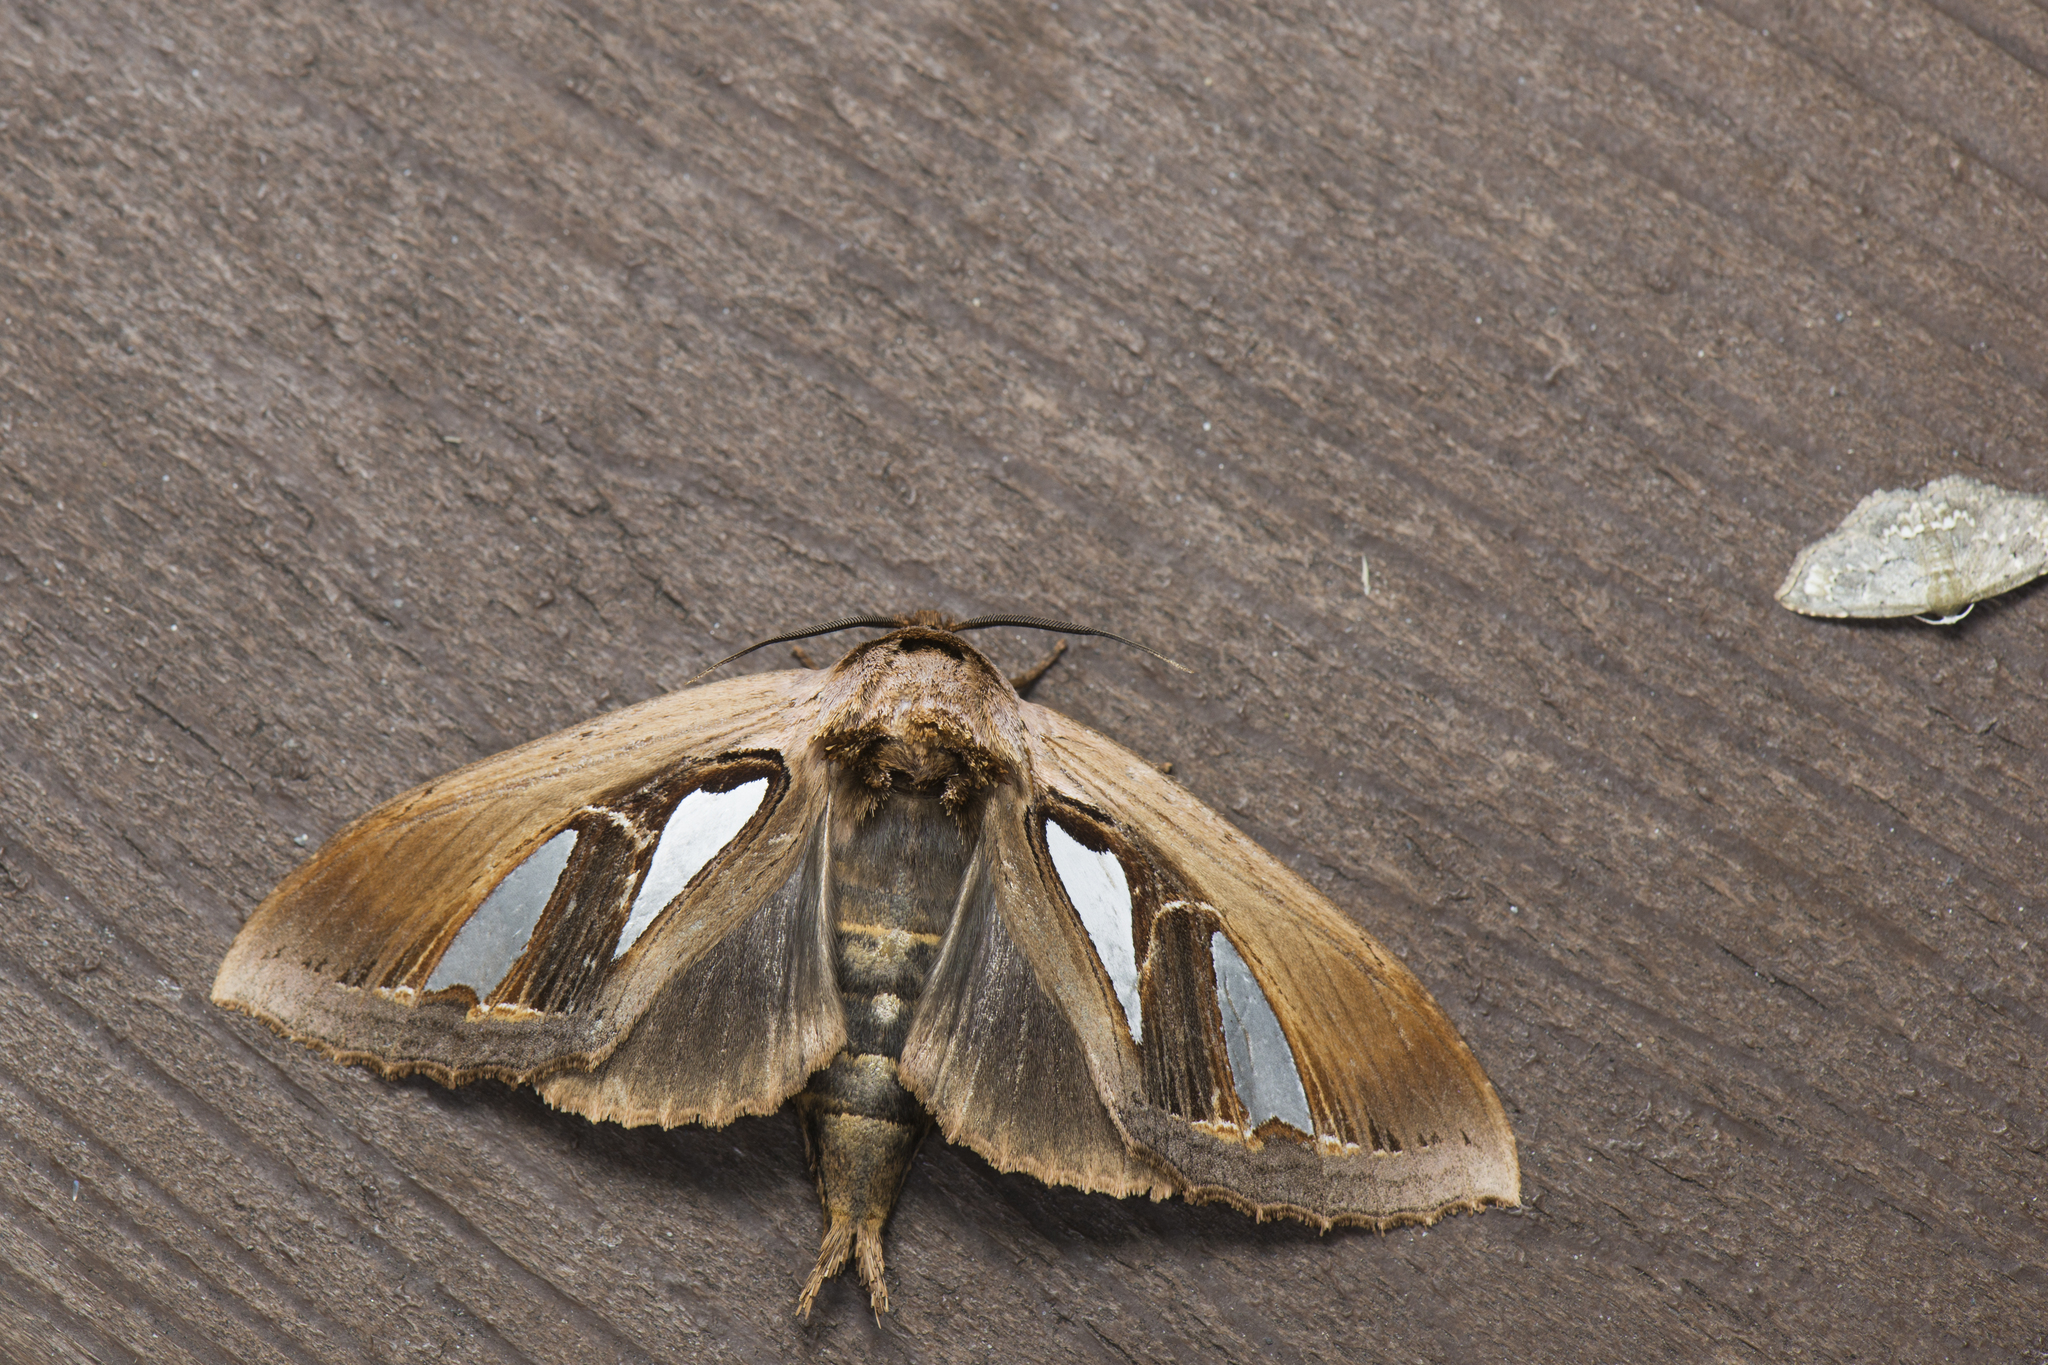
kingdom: Animalia
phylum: Arthropoda
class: Insecta
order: Lepidoptera
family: Notodontidae
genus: Tarsolepis
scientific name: Tarsolepis japonica
